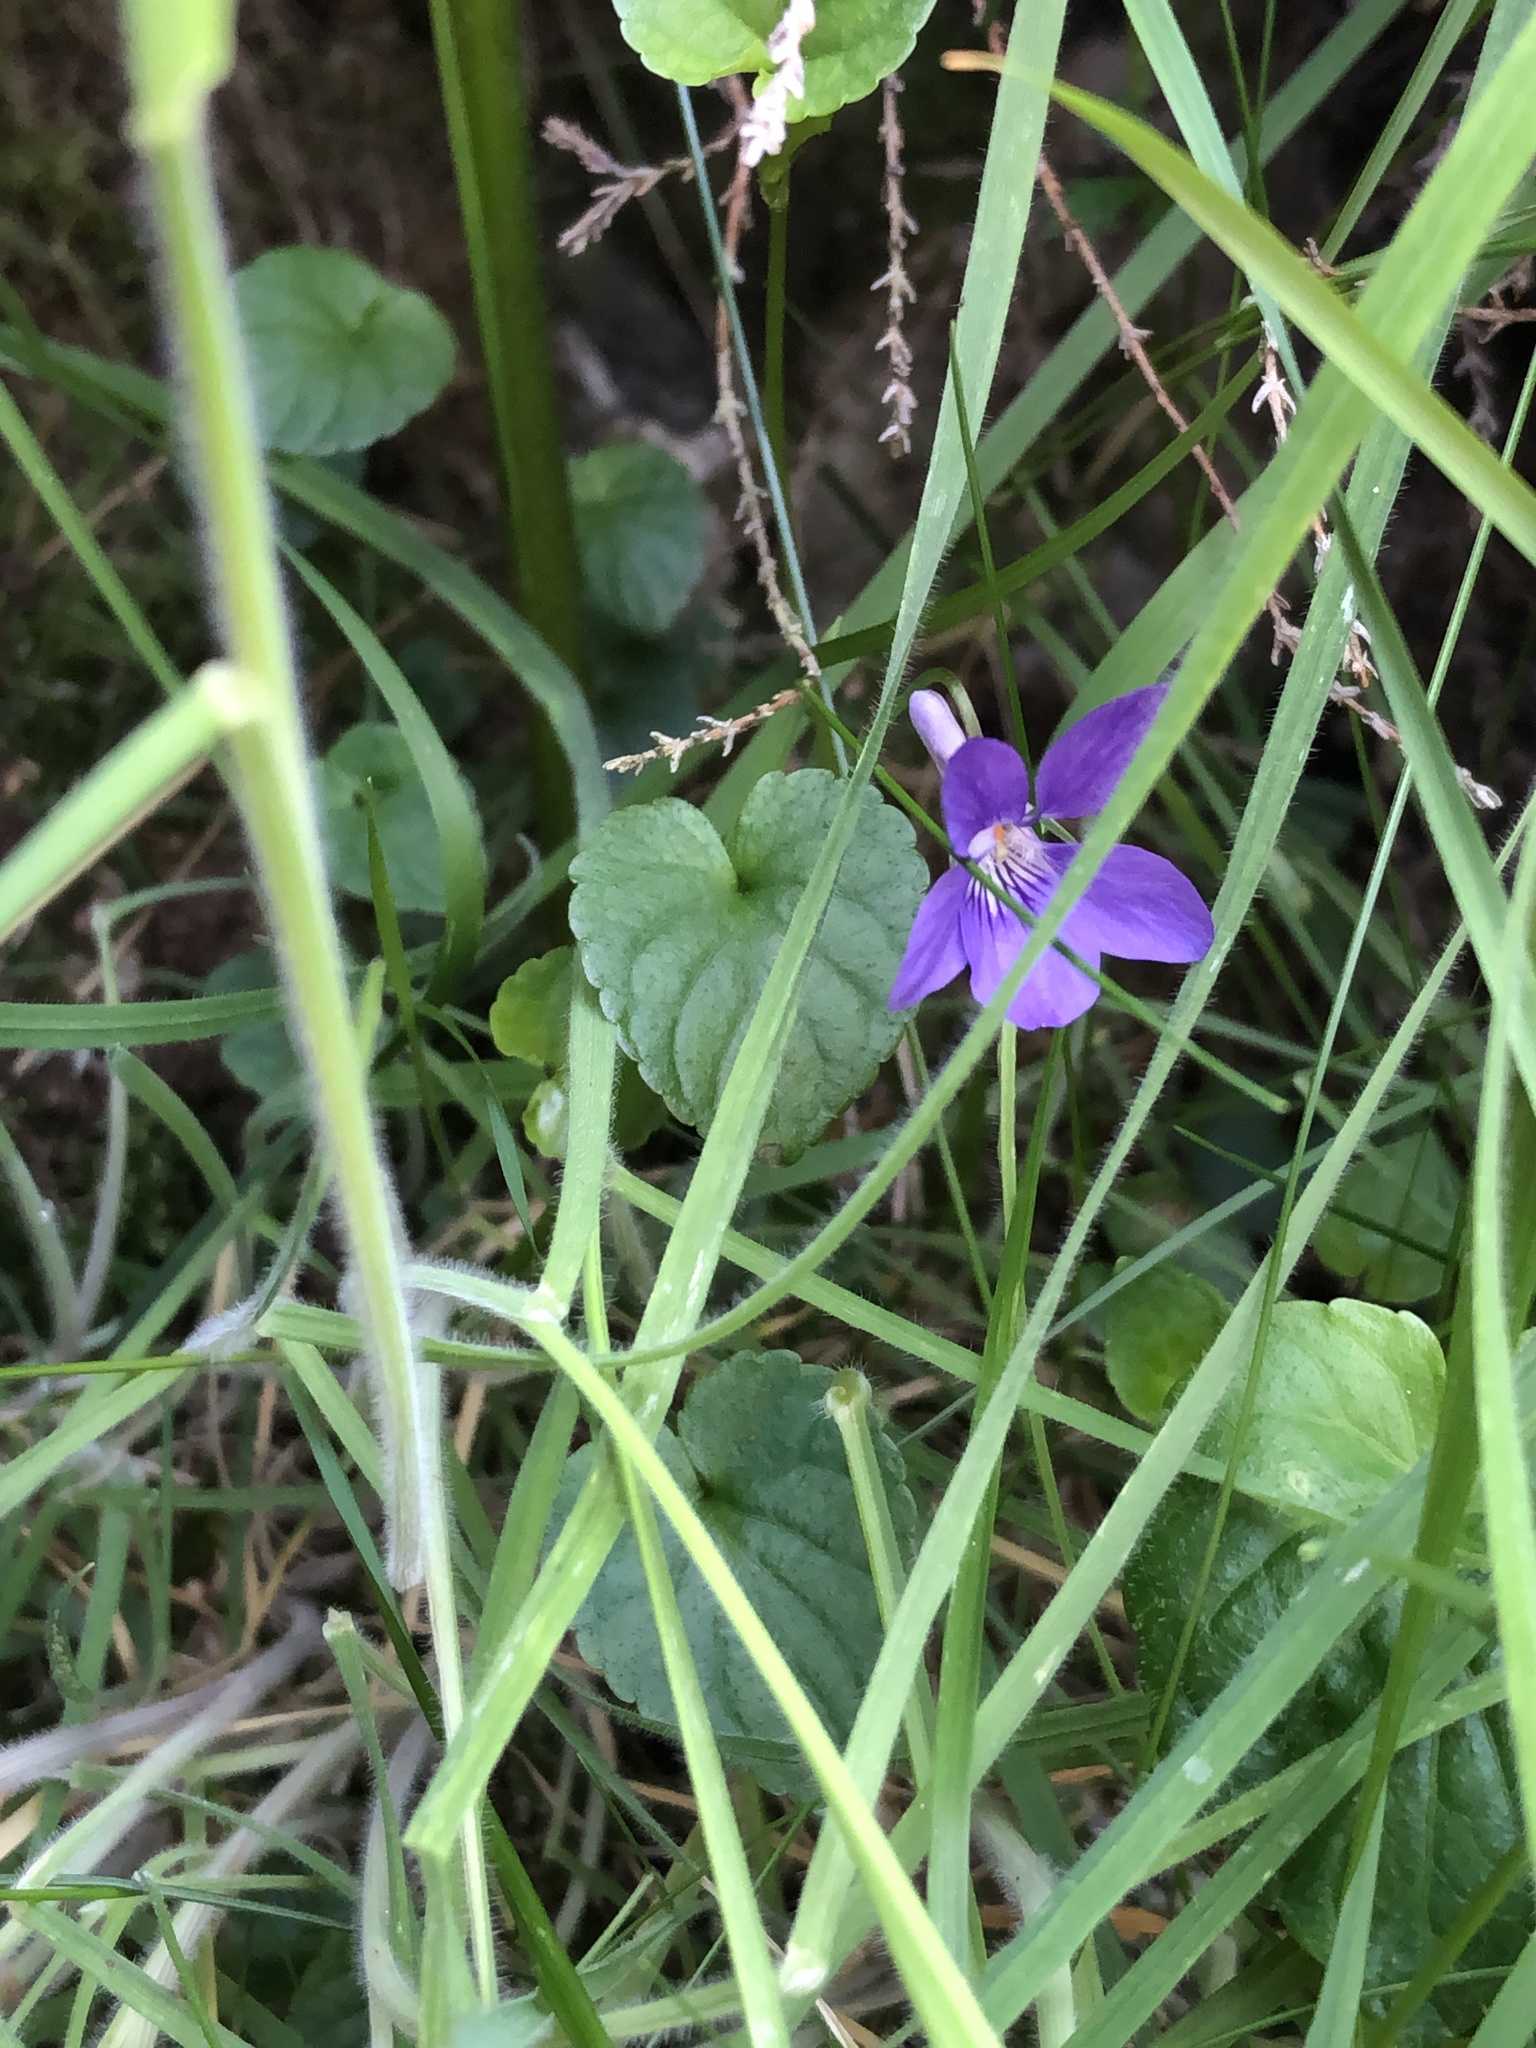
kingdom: Plantae
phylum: Tracheophyta
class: Magnoliopsida
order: Malpighiales
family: Violaceae
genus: Viola
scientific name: Viola riviniana
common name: Common dog-violet
